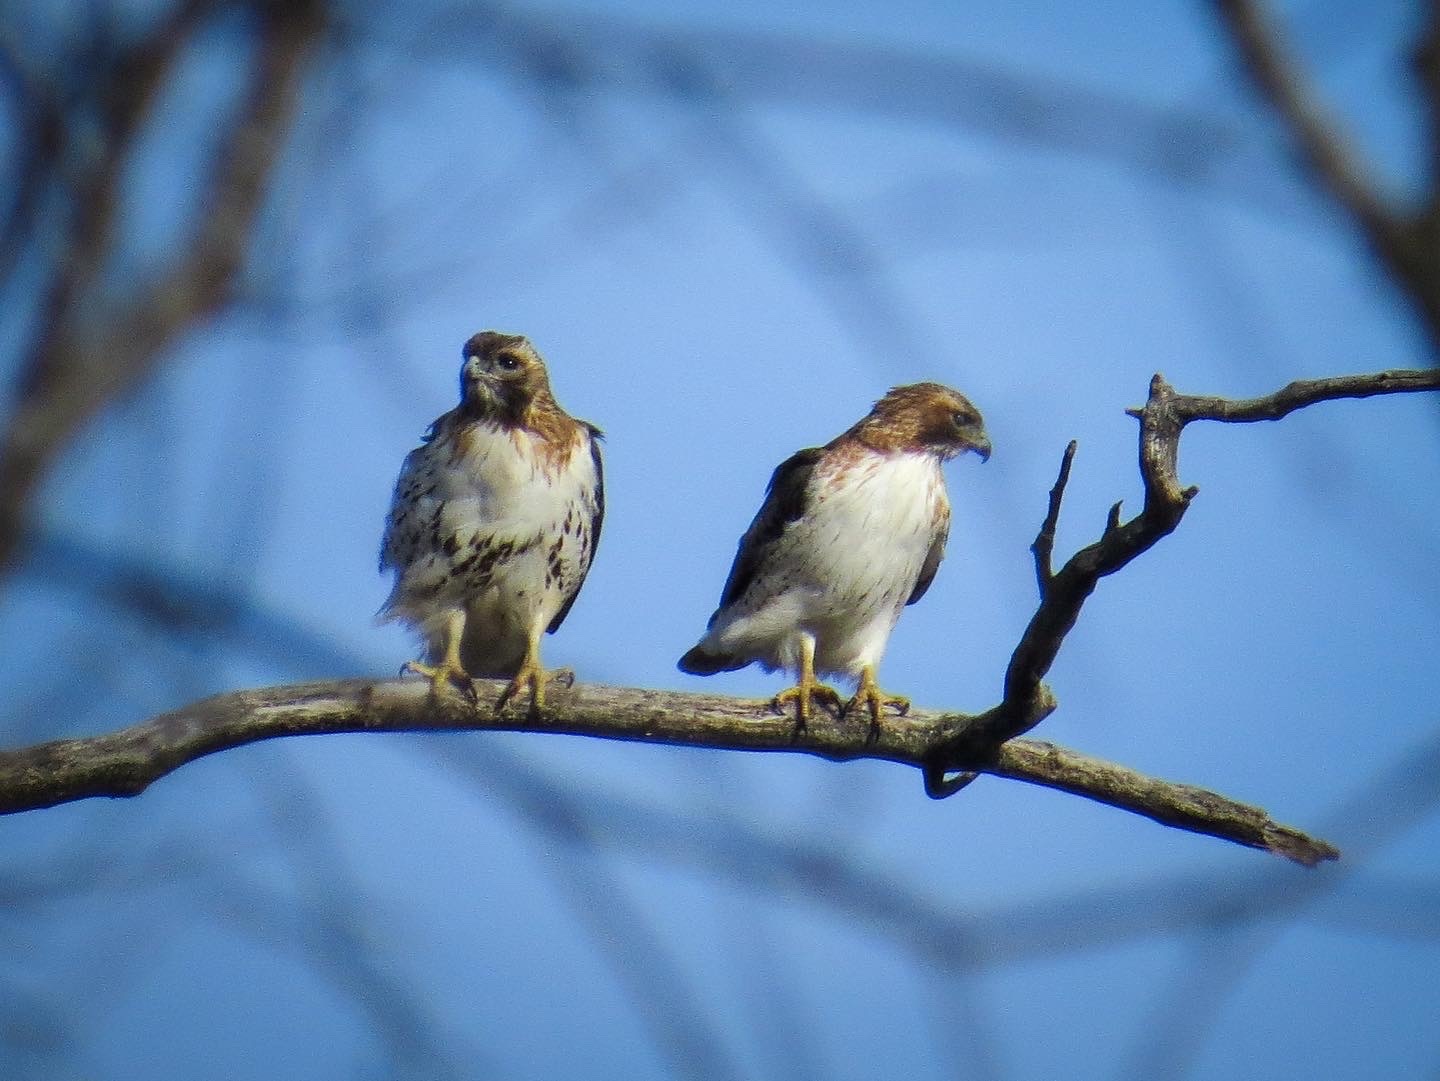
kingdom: Animalia
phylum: Chordata
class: Aves
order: Accipitriformes
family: Accipitridae
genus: Buteo
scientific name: Buteo jamaicensis
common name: Red-tailed hawk
